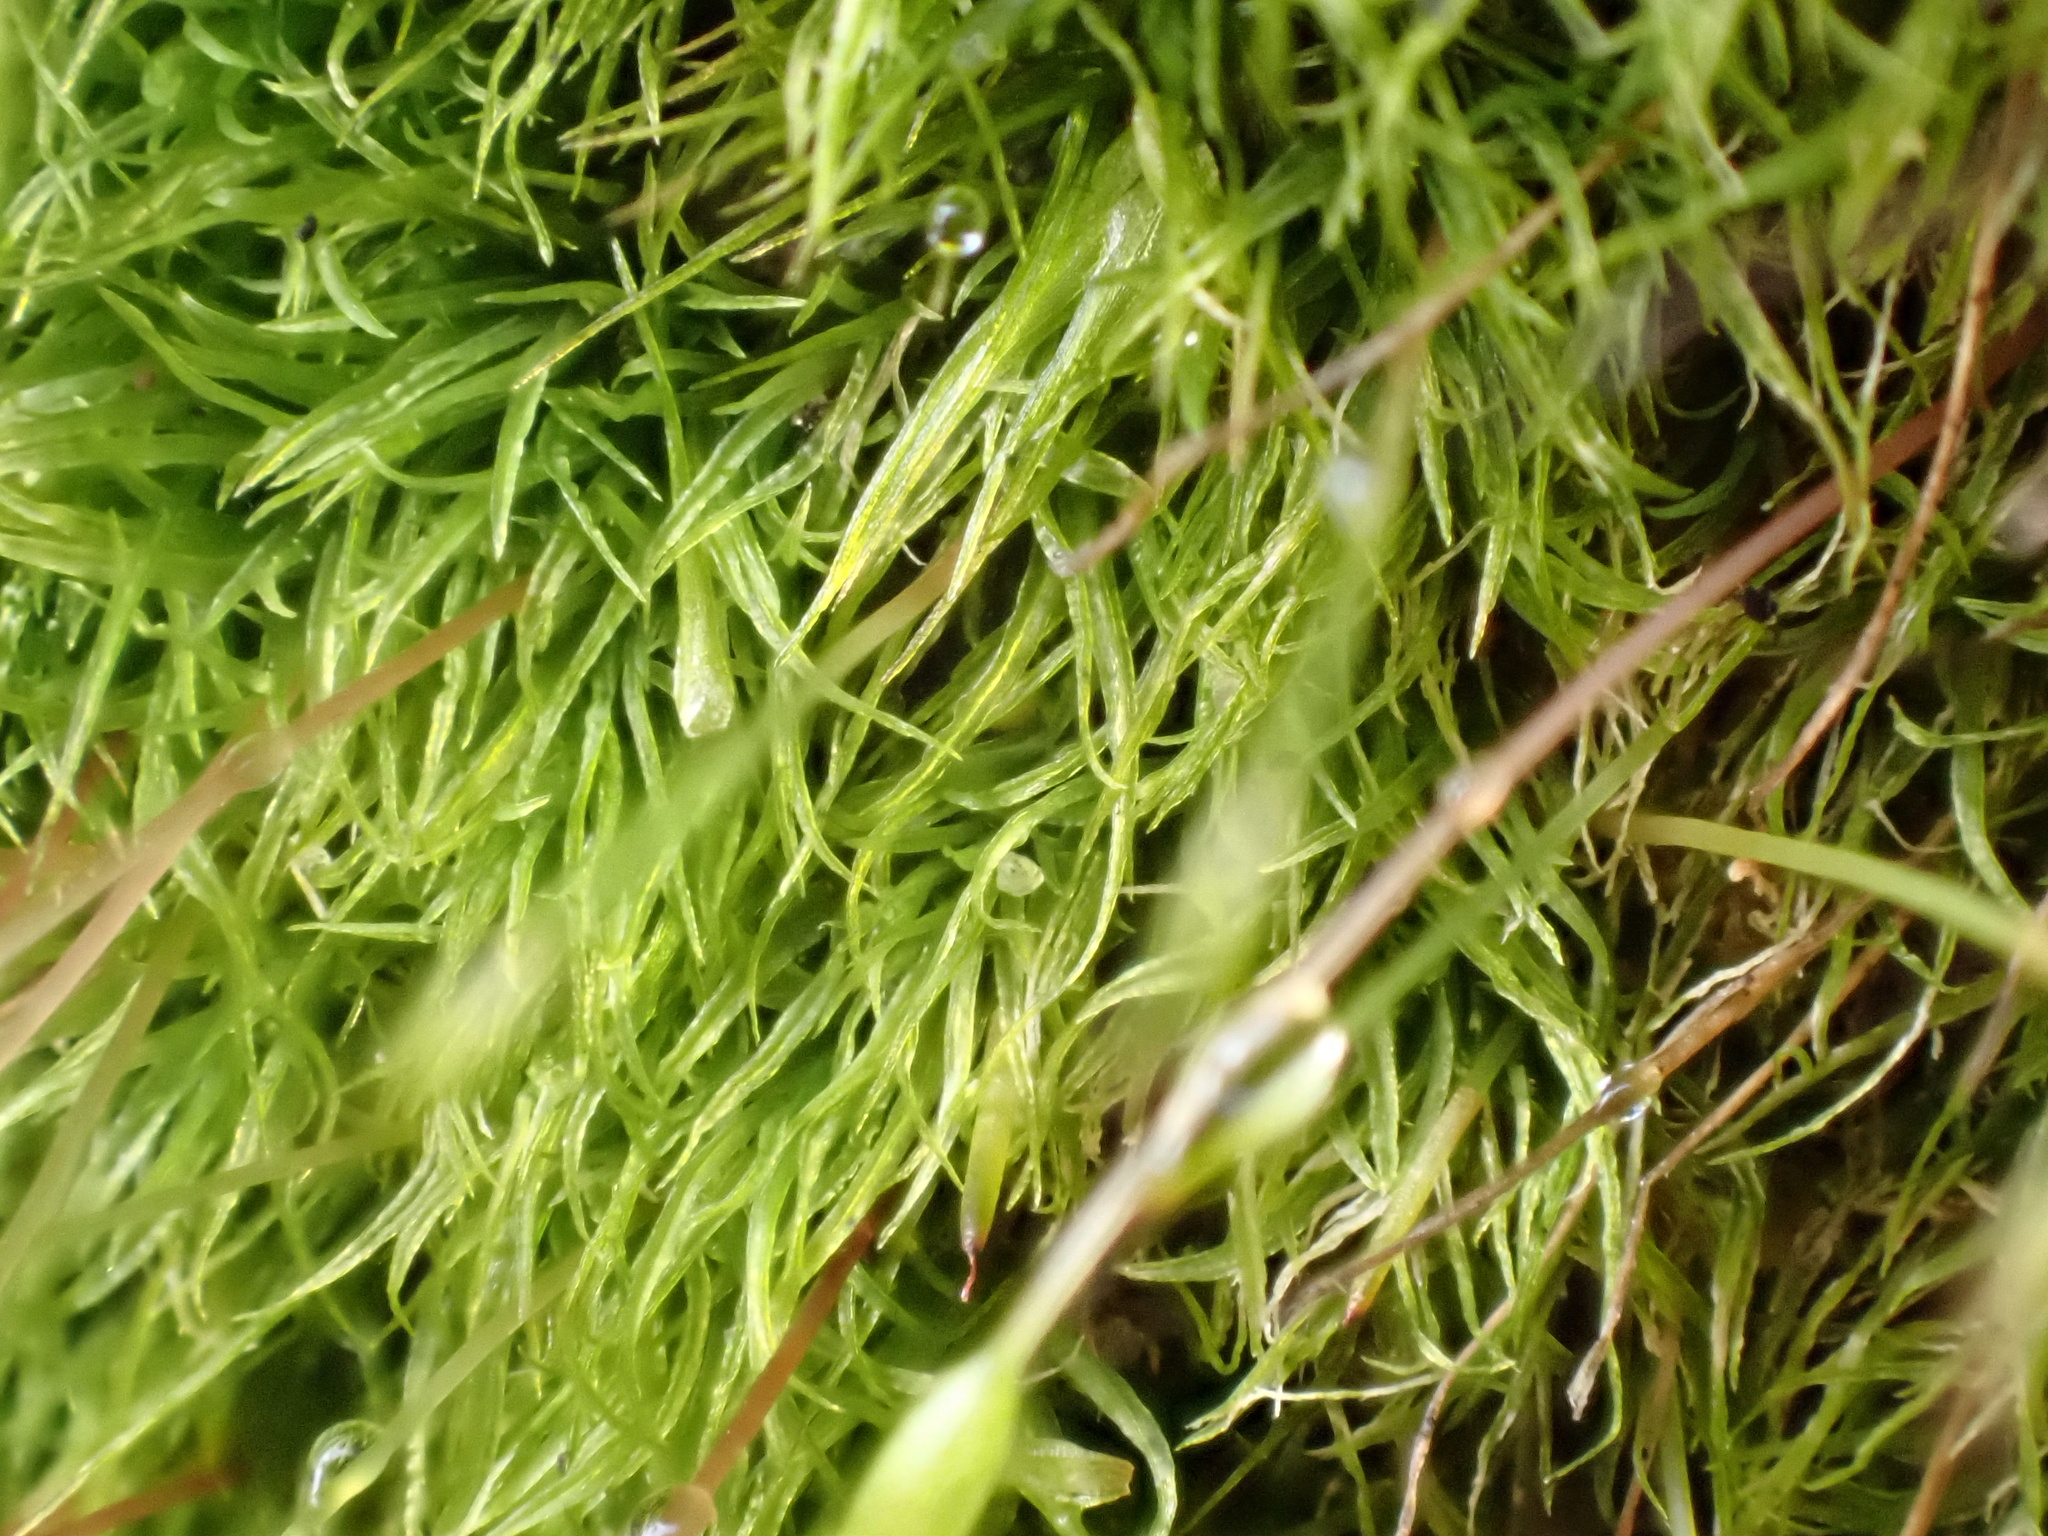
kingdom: Plantae
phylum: Bryophyta
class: Bryopsida
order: Orthodontiales
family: Orthodontiaceae
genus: Orthodontium
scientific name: Orthodontium lineare
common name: Cape thread-moss
